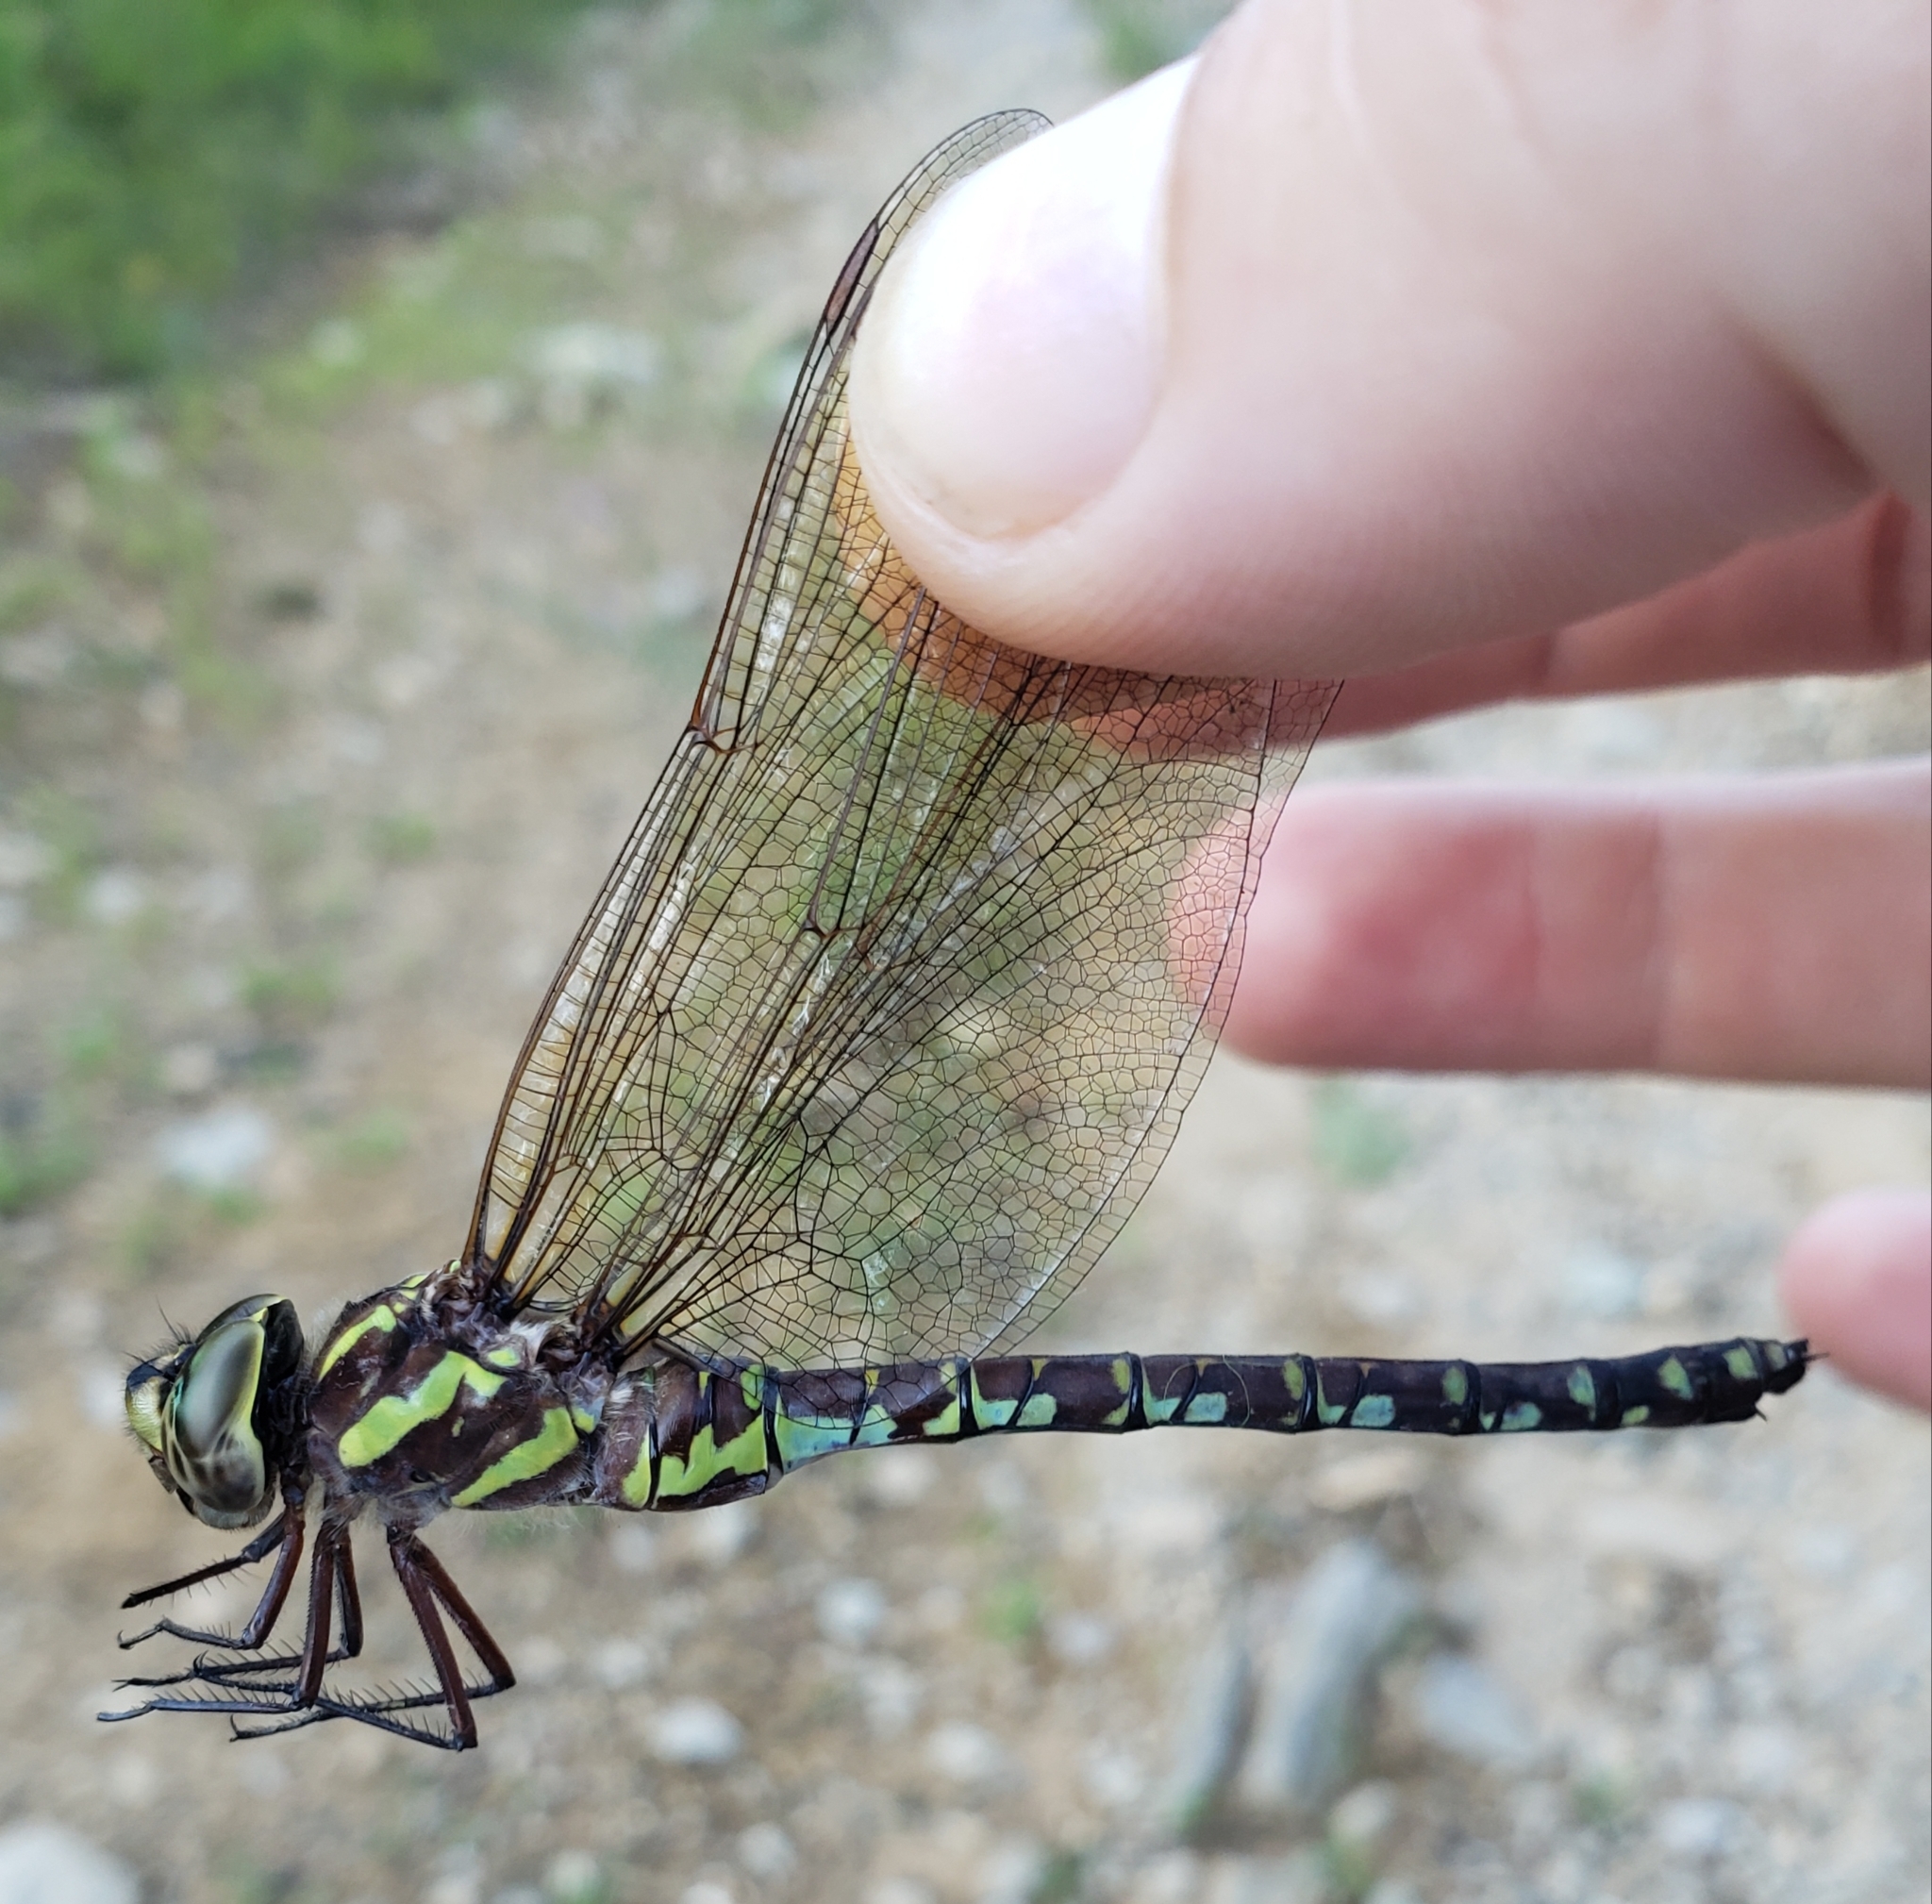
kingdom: Animalia
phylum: Arthropoda
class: Insecta
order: Odonata
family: Aeshnidae
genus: Aeshna
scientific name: Aeshna verticalis
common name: Green-striped darner
